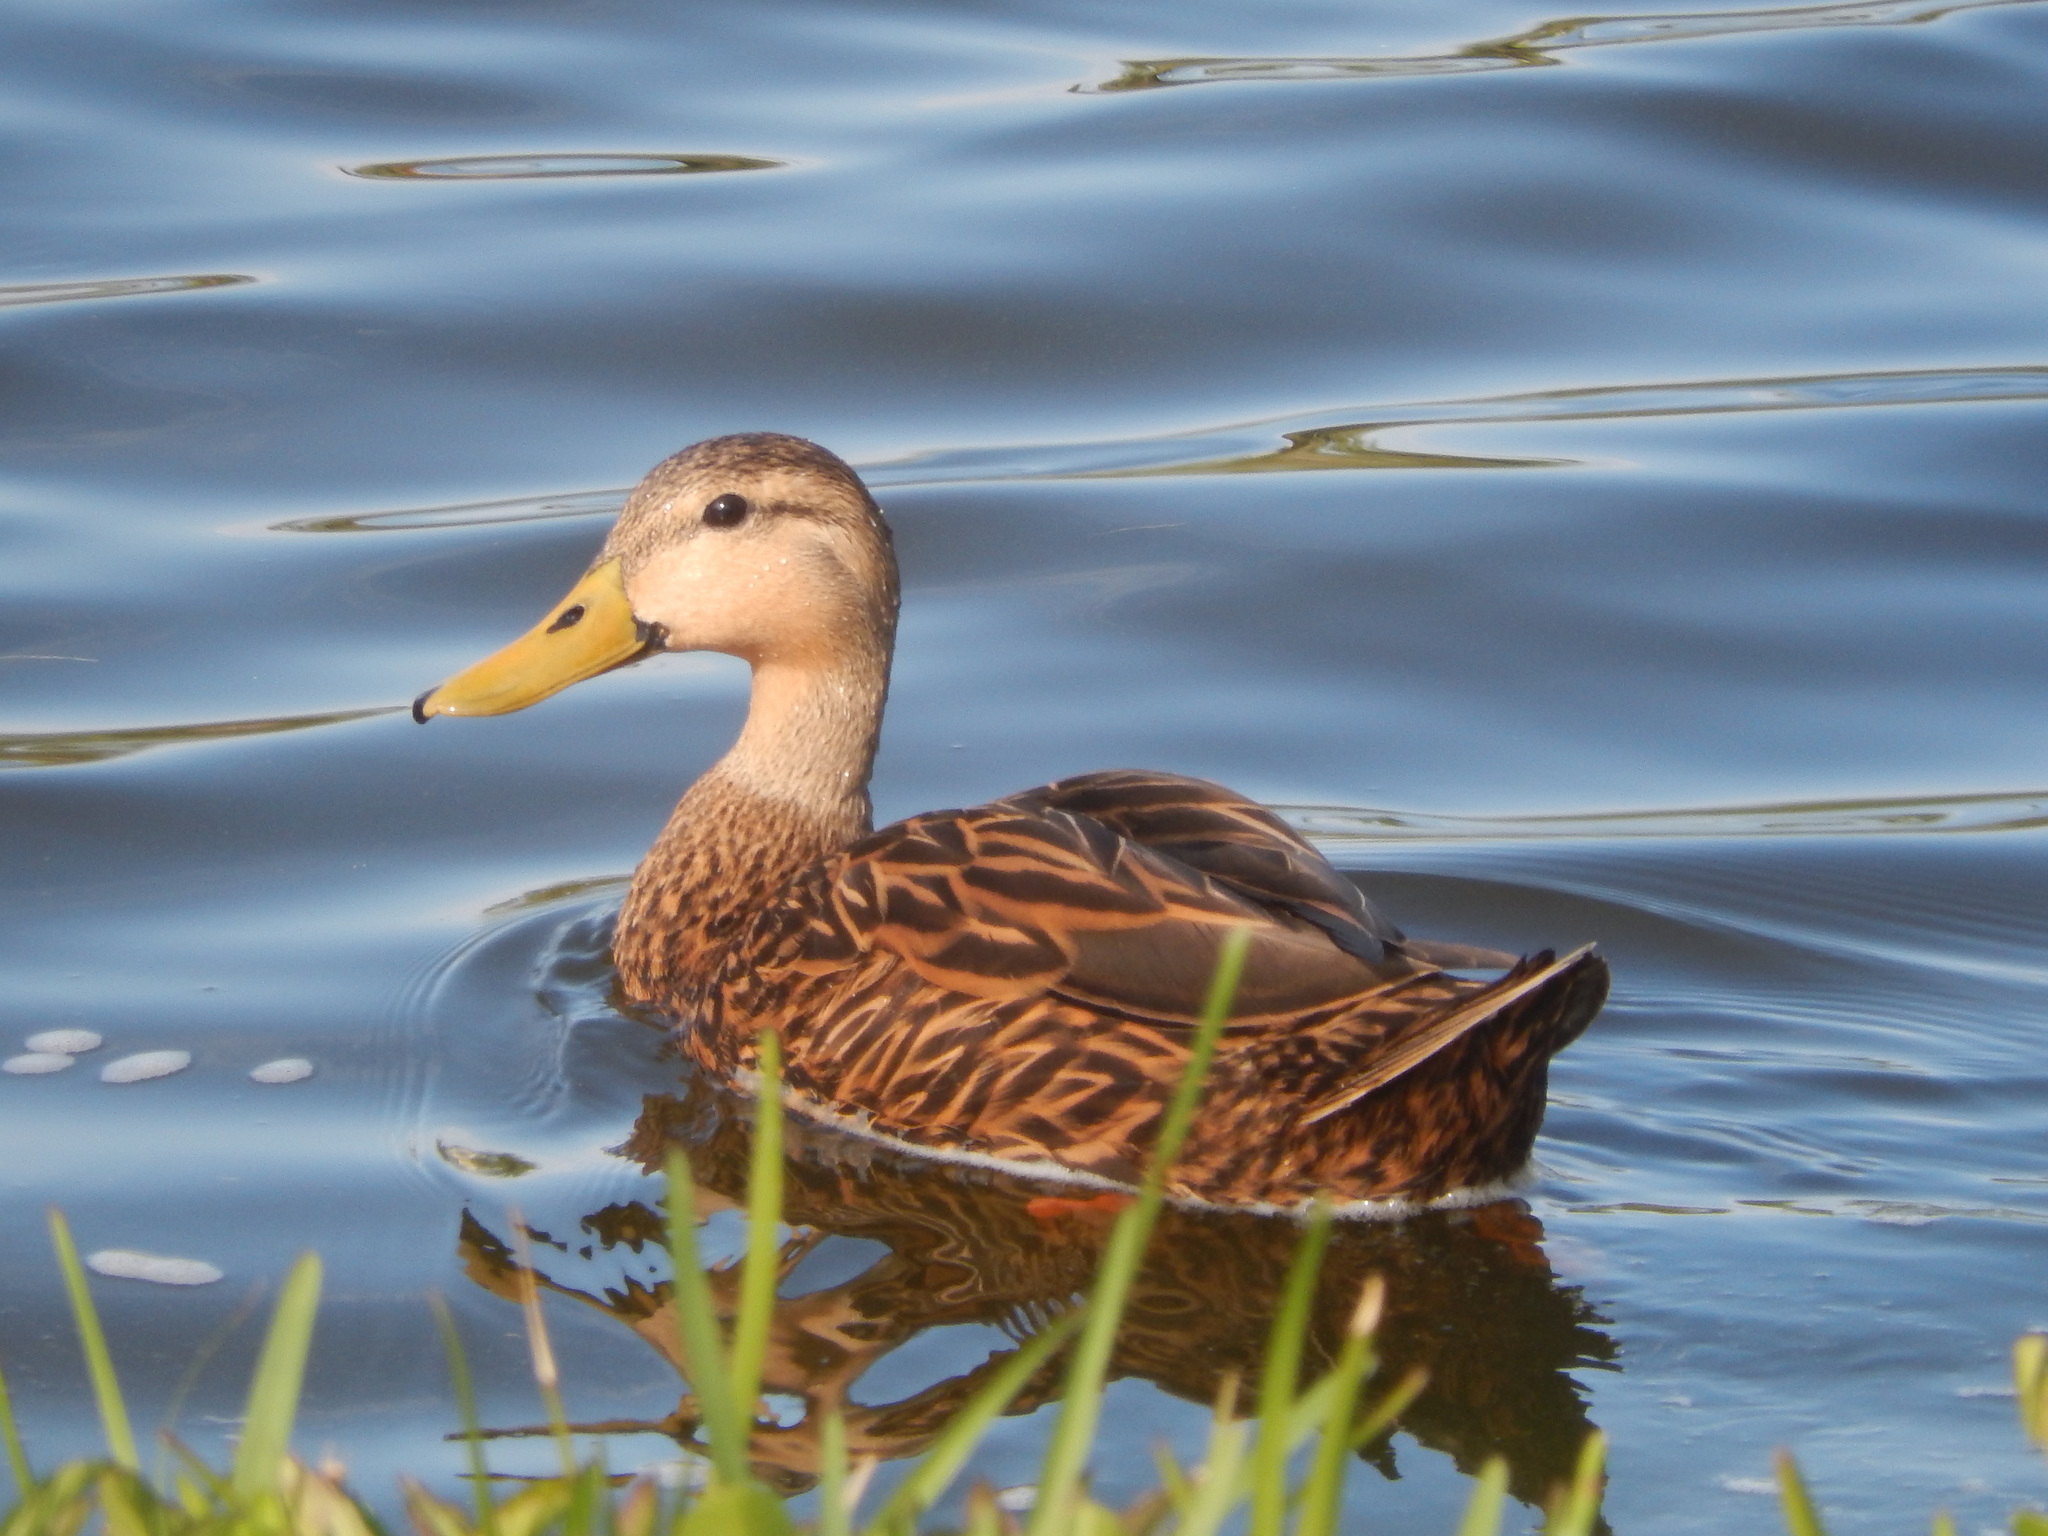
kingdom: Animalia
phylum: Chordata
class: Aves
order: Anseriformes
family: Anatidae
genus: Anas
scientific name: Anas fulvigula
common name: Mottled duck
